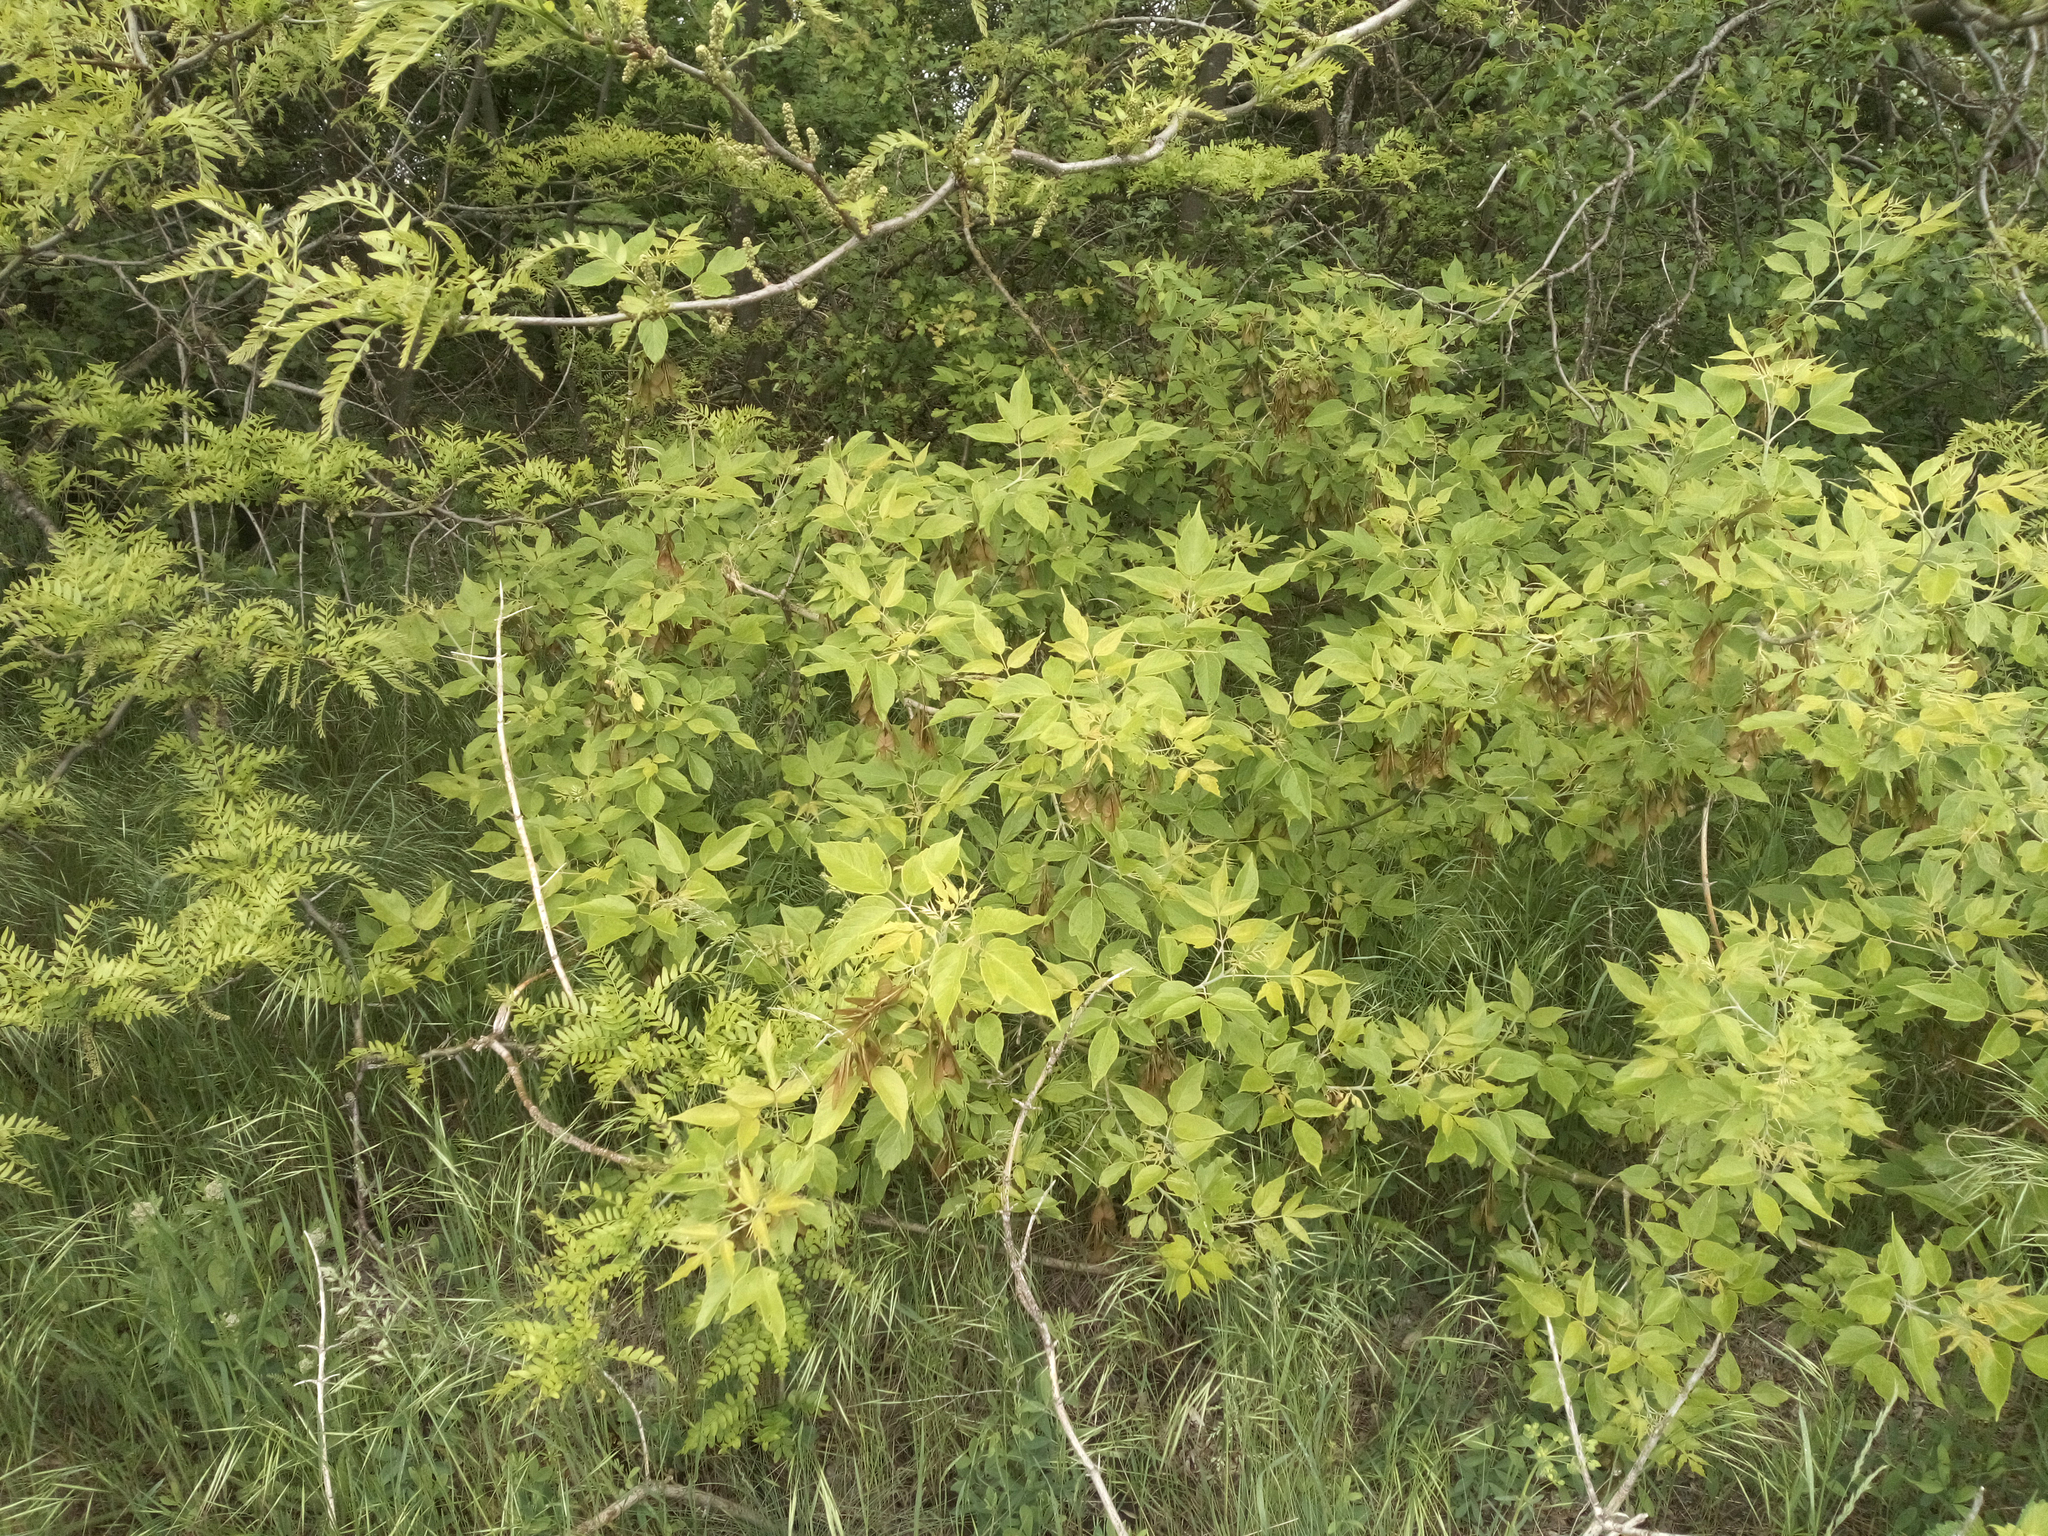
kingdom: Plantae
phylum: Tracheophyta
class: Magnoliopsida
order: Sapindales
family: Sapindaceae
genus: Acer
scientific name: Acer negundo
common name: Ashleaf maple
